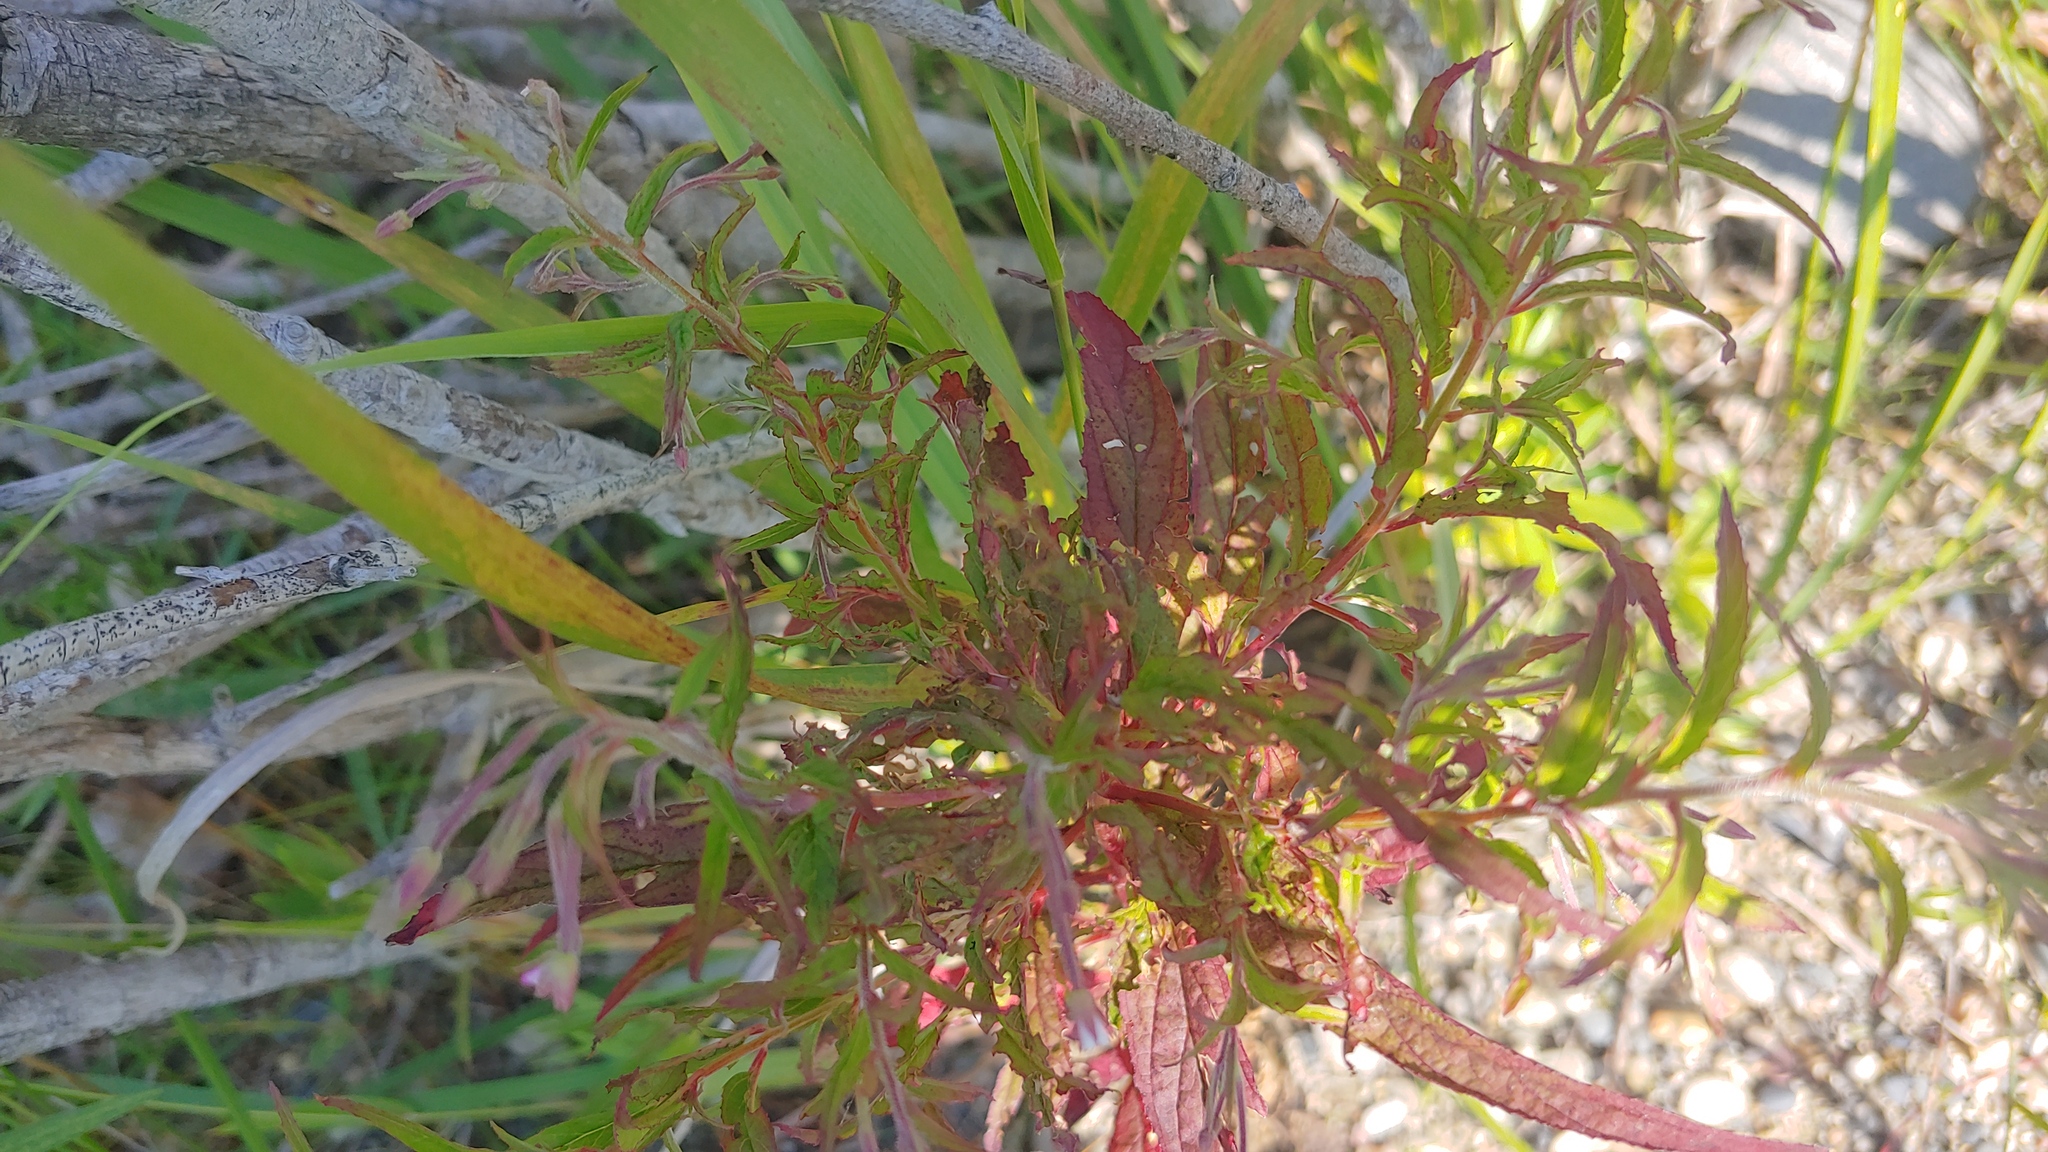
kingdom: Plantae
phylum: Tracheophyta
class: Magnoliopsida
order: Myrtales
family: Onagraceae
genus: Epilobium
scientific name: Epilobium coloratum
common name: Bronze willowherb
